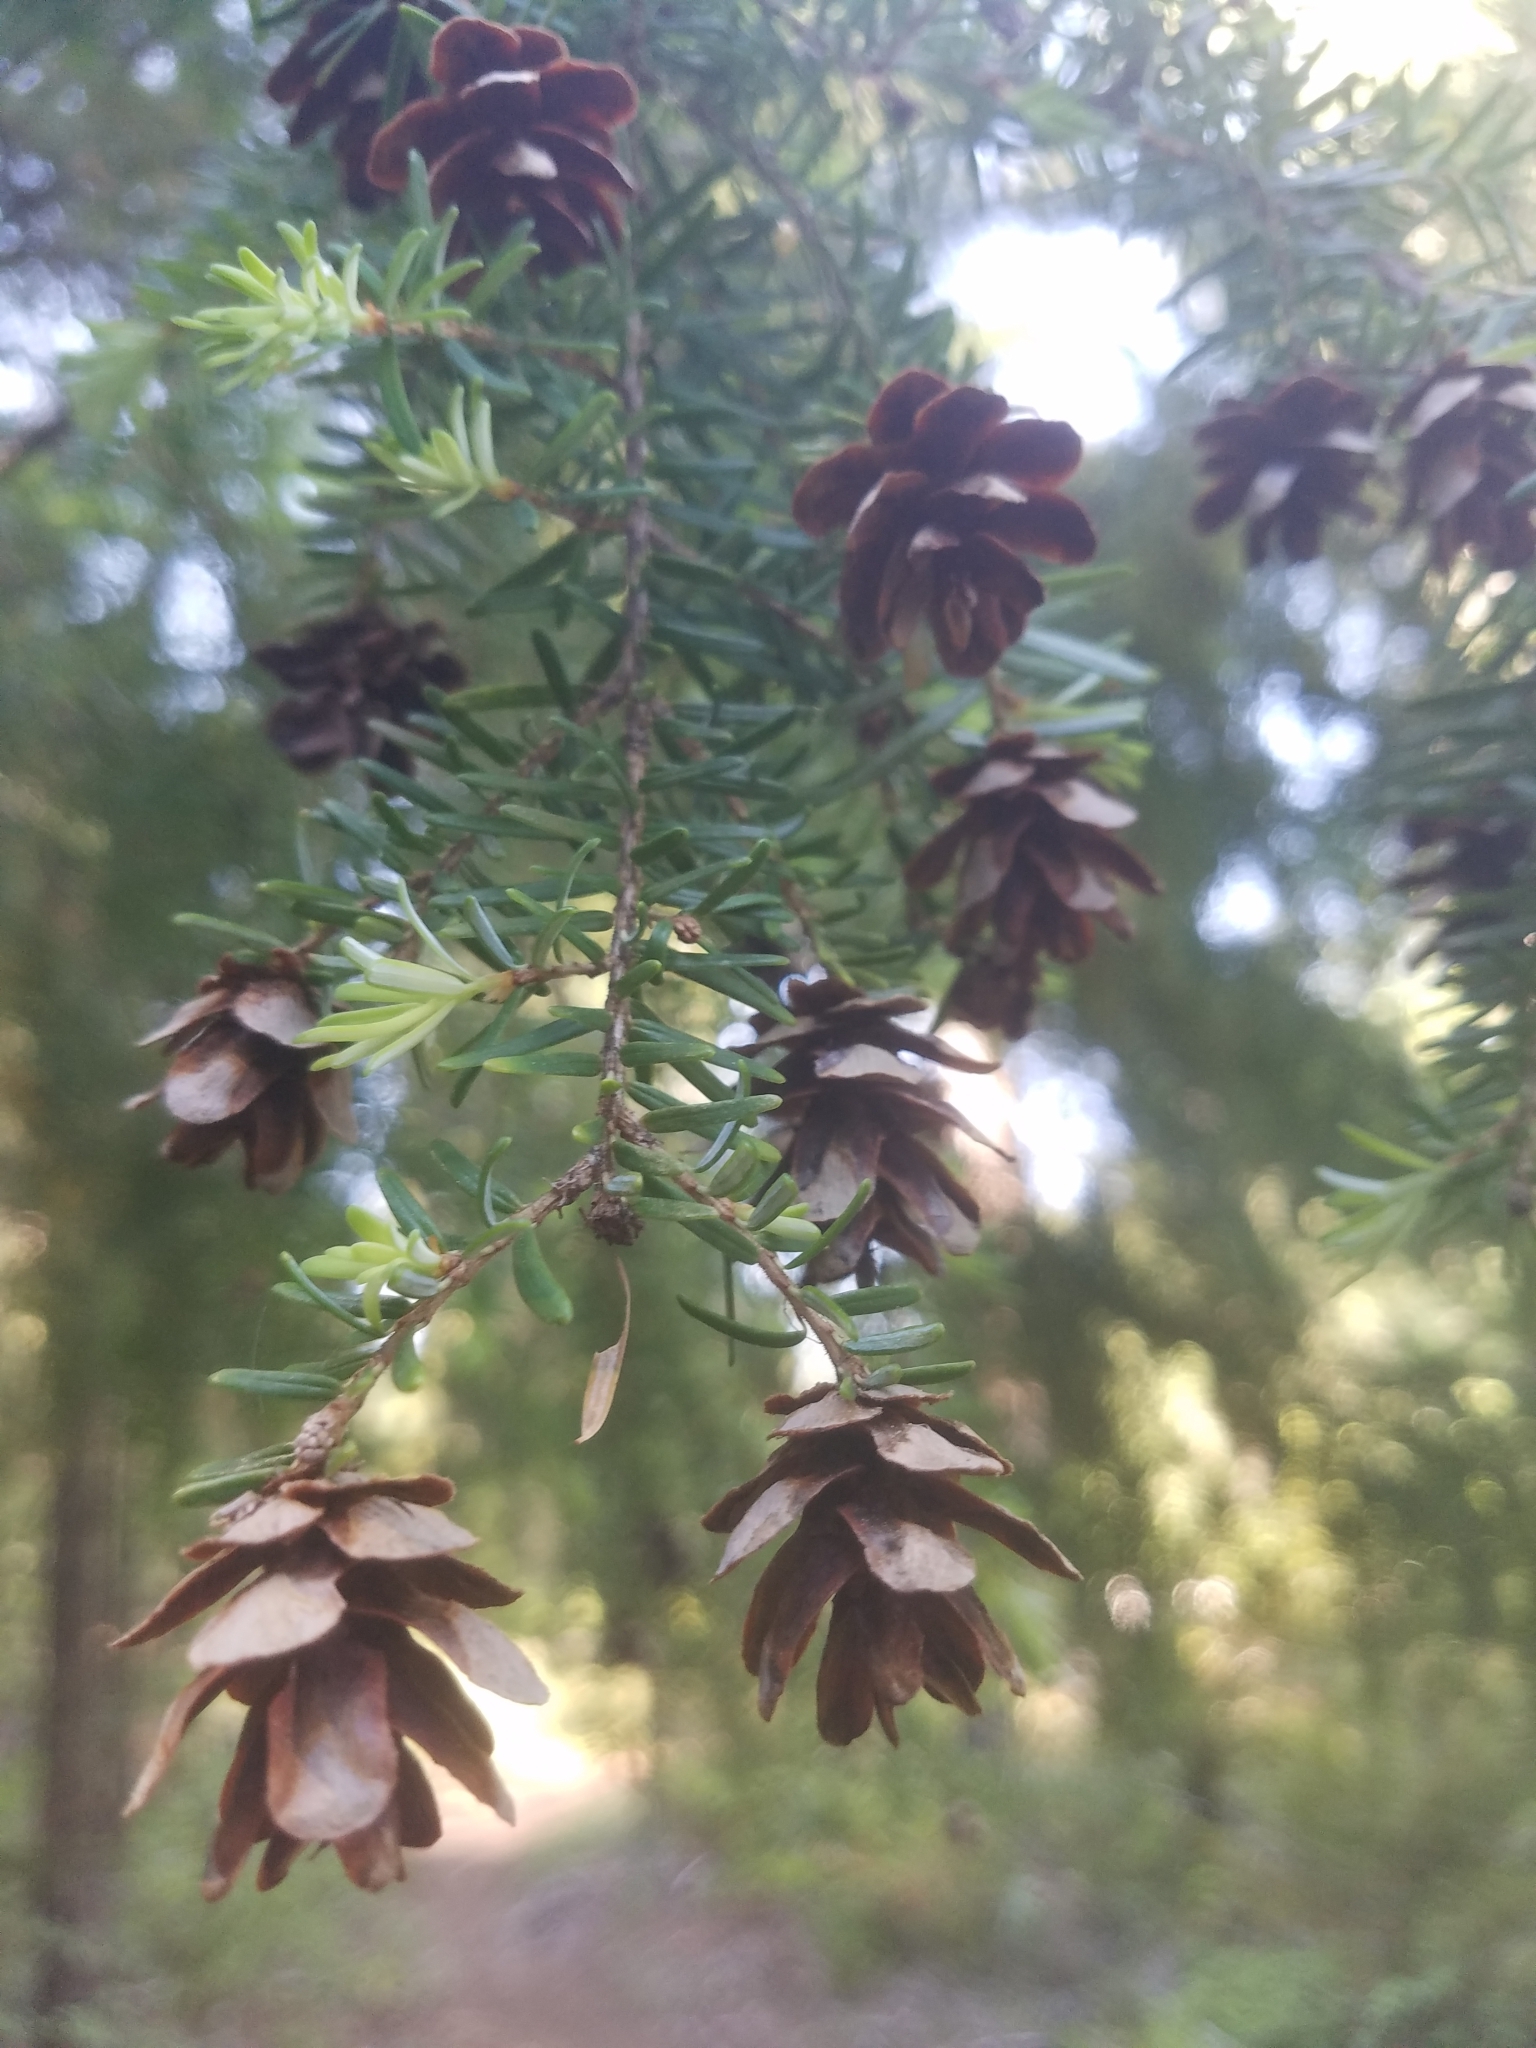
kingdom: Plantae
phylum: Tracheophyta
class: Pinopsida
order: Pinales
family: Pinaceae
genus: Tsuga
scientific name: Tsuga heterophylla
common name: Western hemlock
